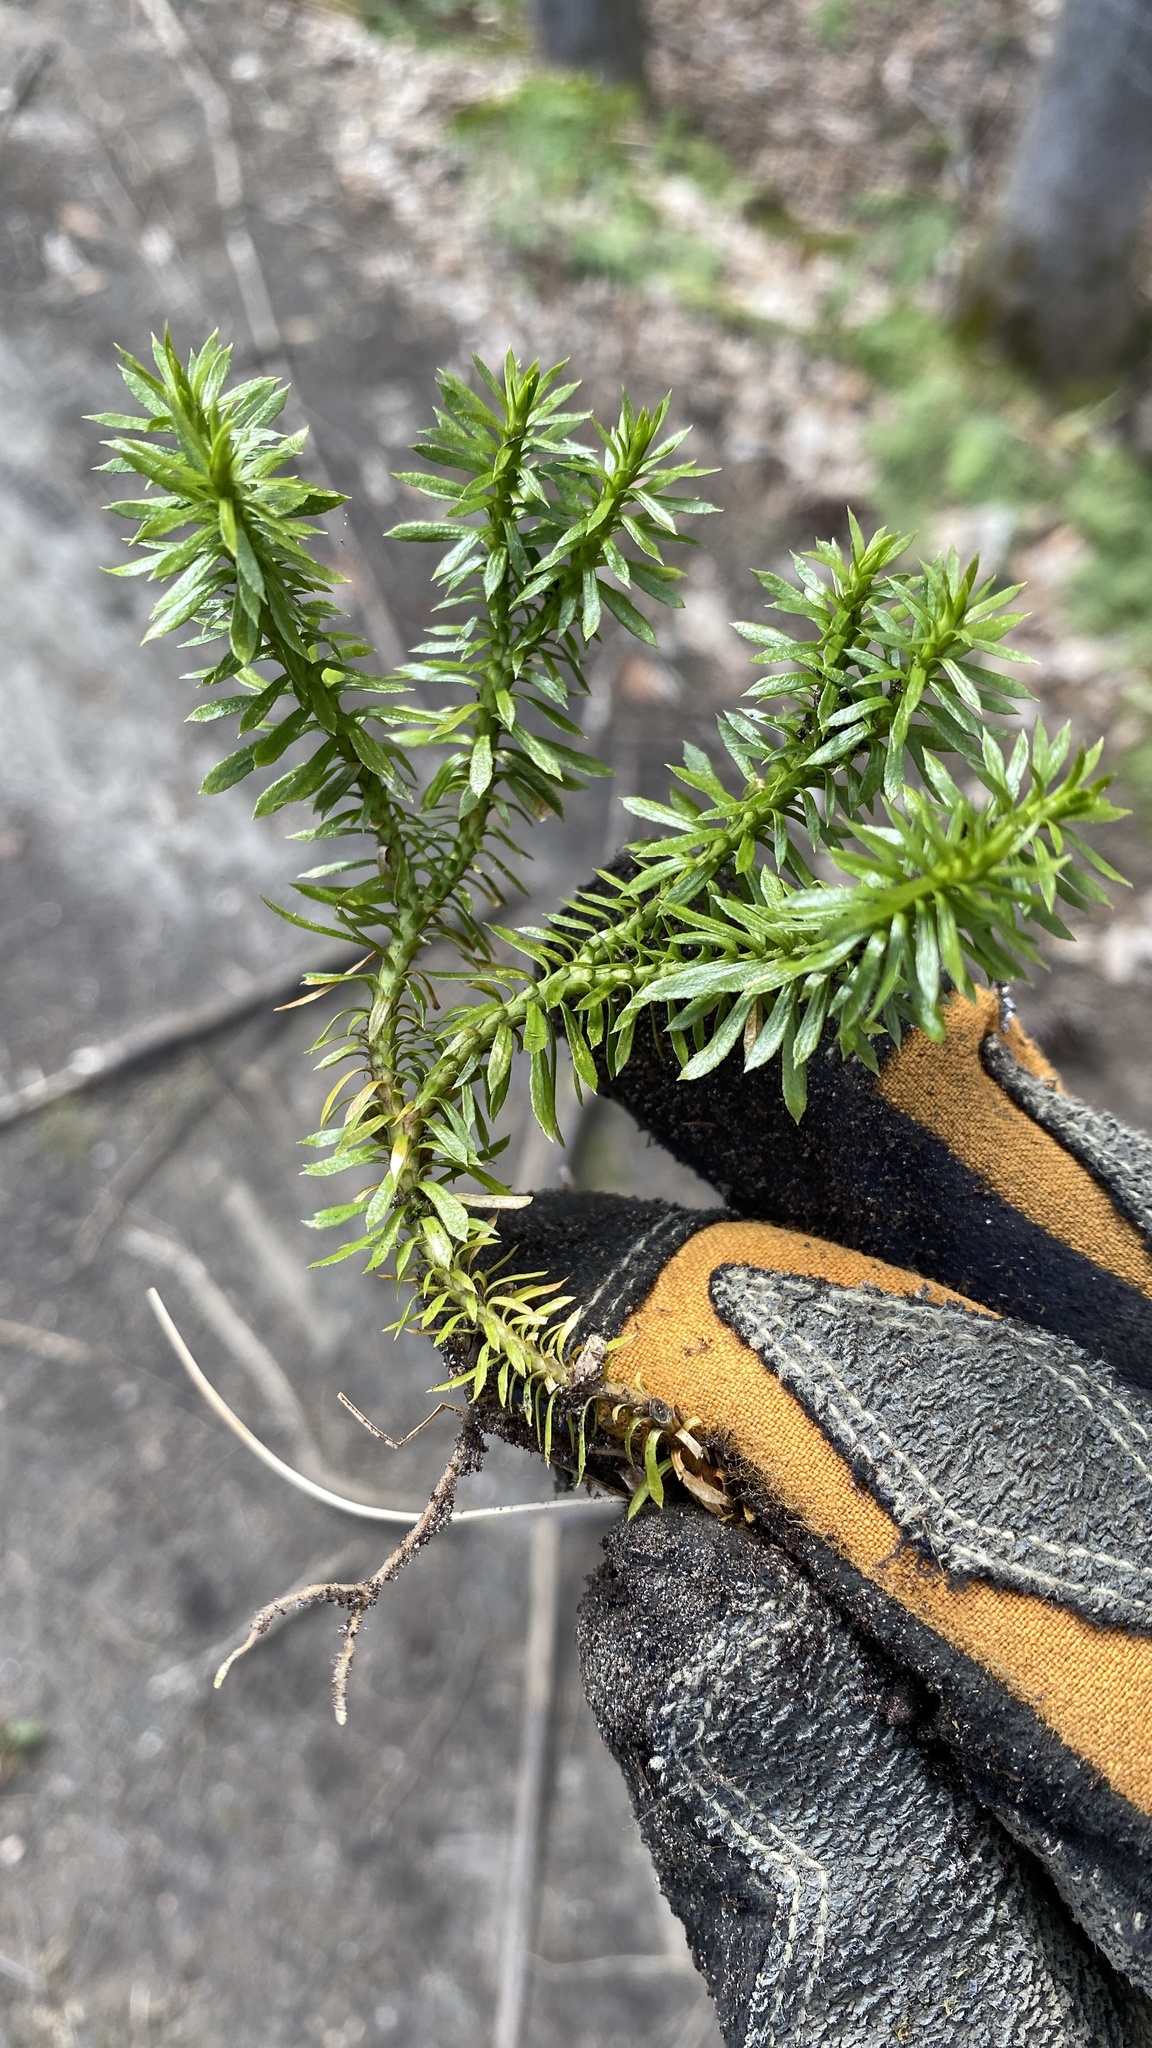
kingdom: Plantae
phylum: Tracheophyta
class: Lycopodiopsida
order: Lycopodiales
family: Lycopodiaceae
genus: Huperzia
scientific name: Huperzia lucidula
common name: Shining clubmoss
